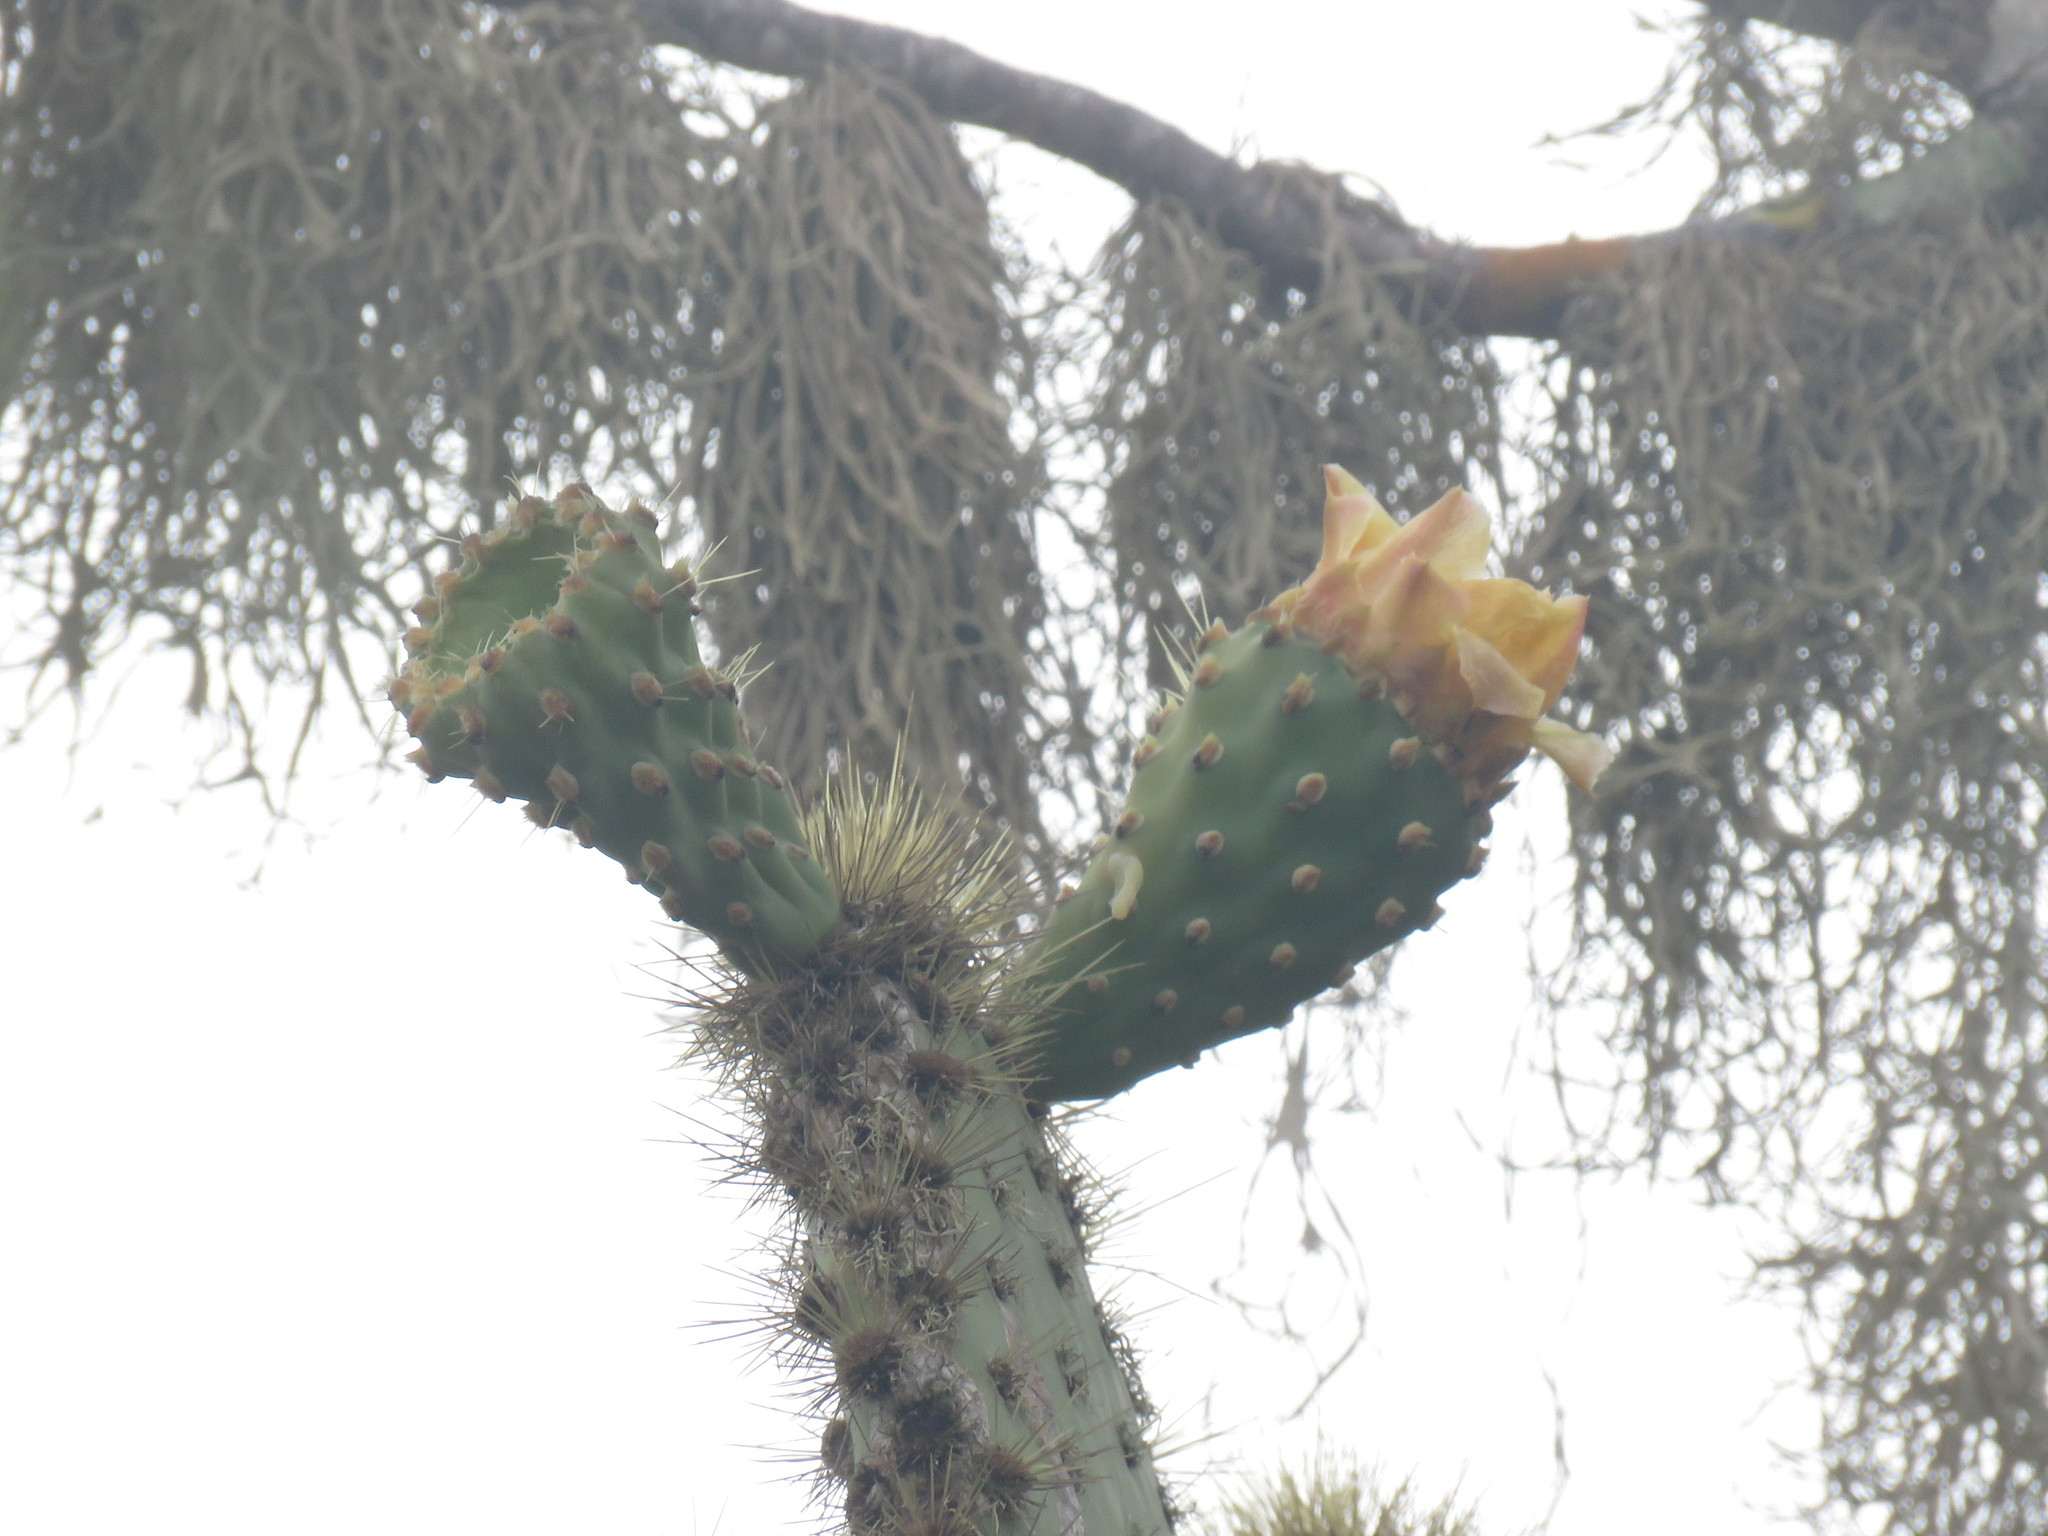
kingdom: Plantae
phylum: Tracheophyta
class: Magnoliopsida
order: Caryophyllales
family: Cactaceae
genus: Opuntia
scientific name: Opuntia galapageia
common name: Galápagos prickly pear
